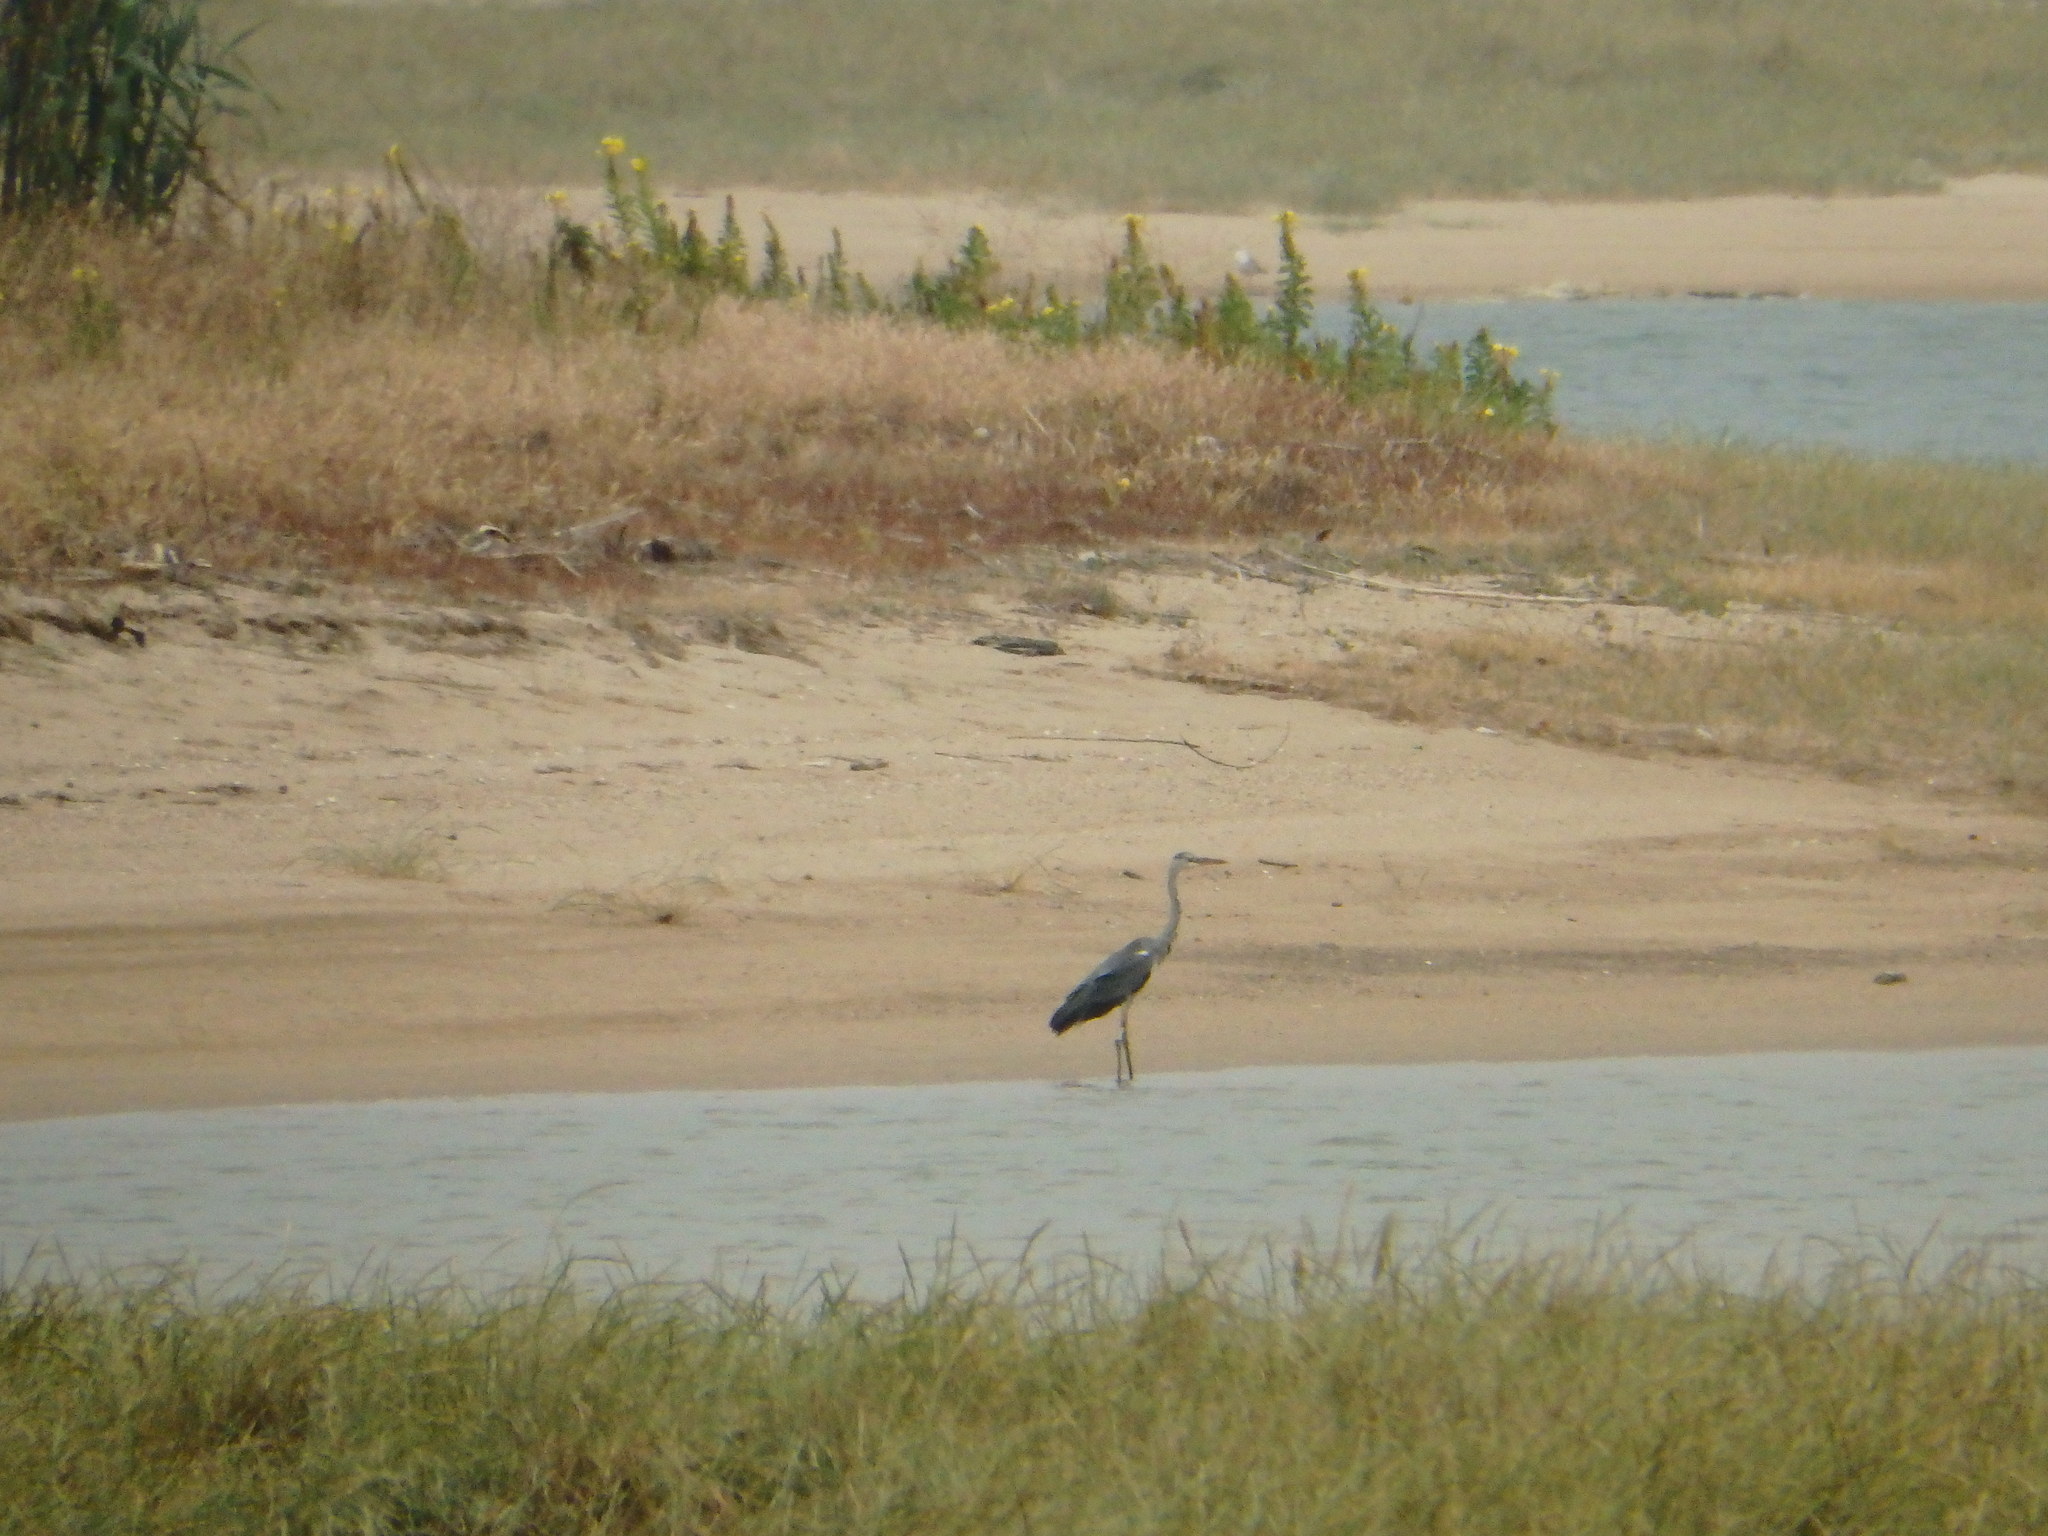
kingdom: Animalia
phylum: Chordata
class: Aves
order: Pelecaniformes
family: Ardeidae
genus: Ardea
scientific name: Ardea cinerea
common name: Grey heron
